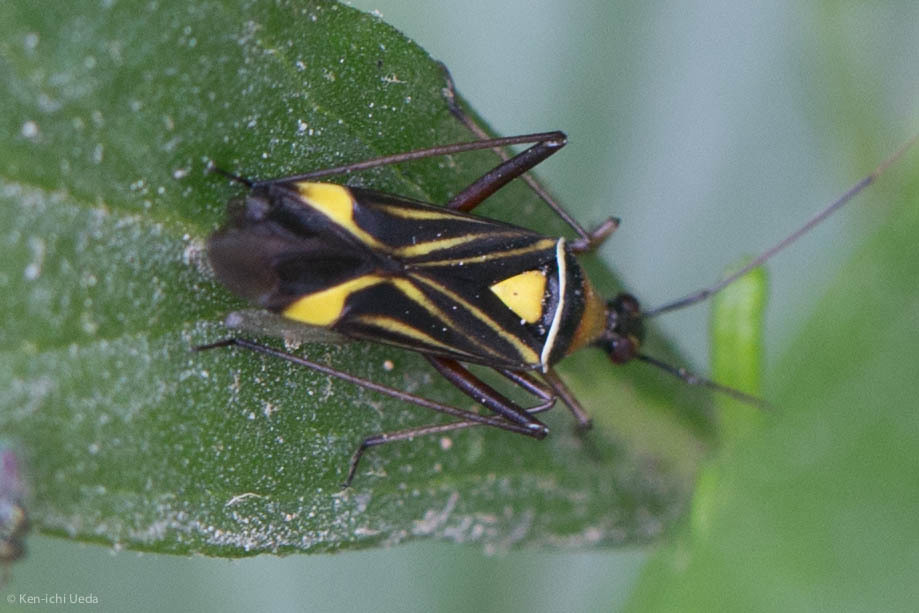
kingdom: Animalia
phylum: Arthropoda
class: Insecta
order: Hemiptera
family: Miridae
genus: Closterocoris
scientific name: Closterocoris amoenus
